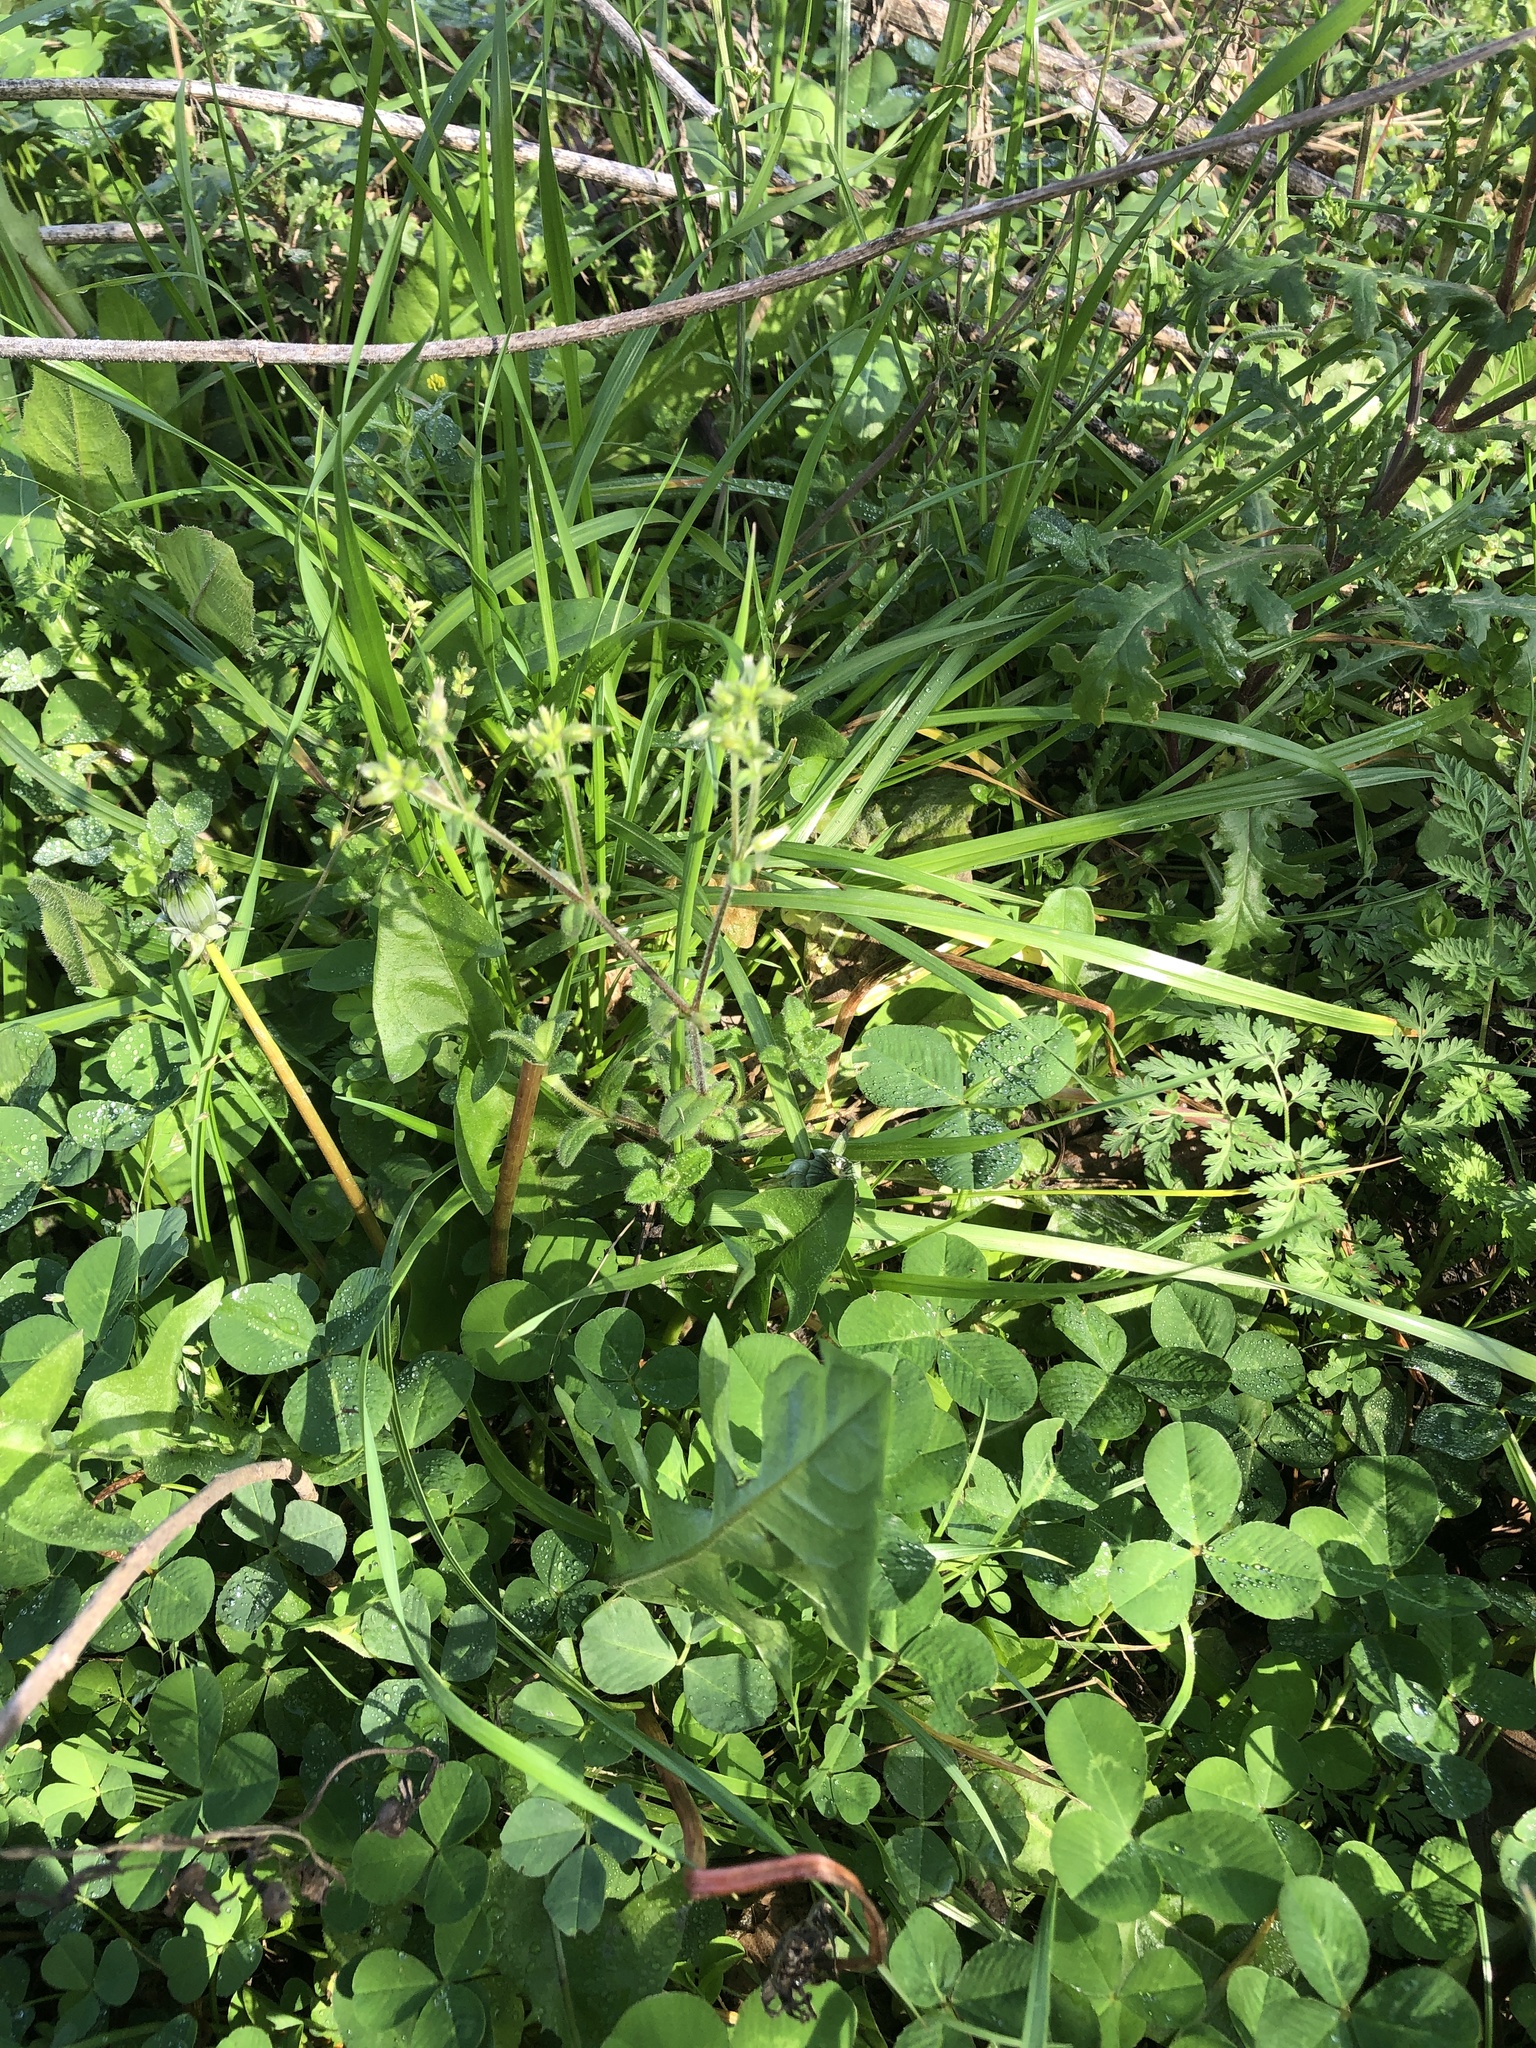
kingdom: Plantae
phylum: Tracheophyta
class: Magnoliopsida
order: Caryophyllales
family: Caryophyllaceae
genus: Cerastium
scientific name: Cerastium glomeratum
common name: Sticky chickweed
